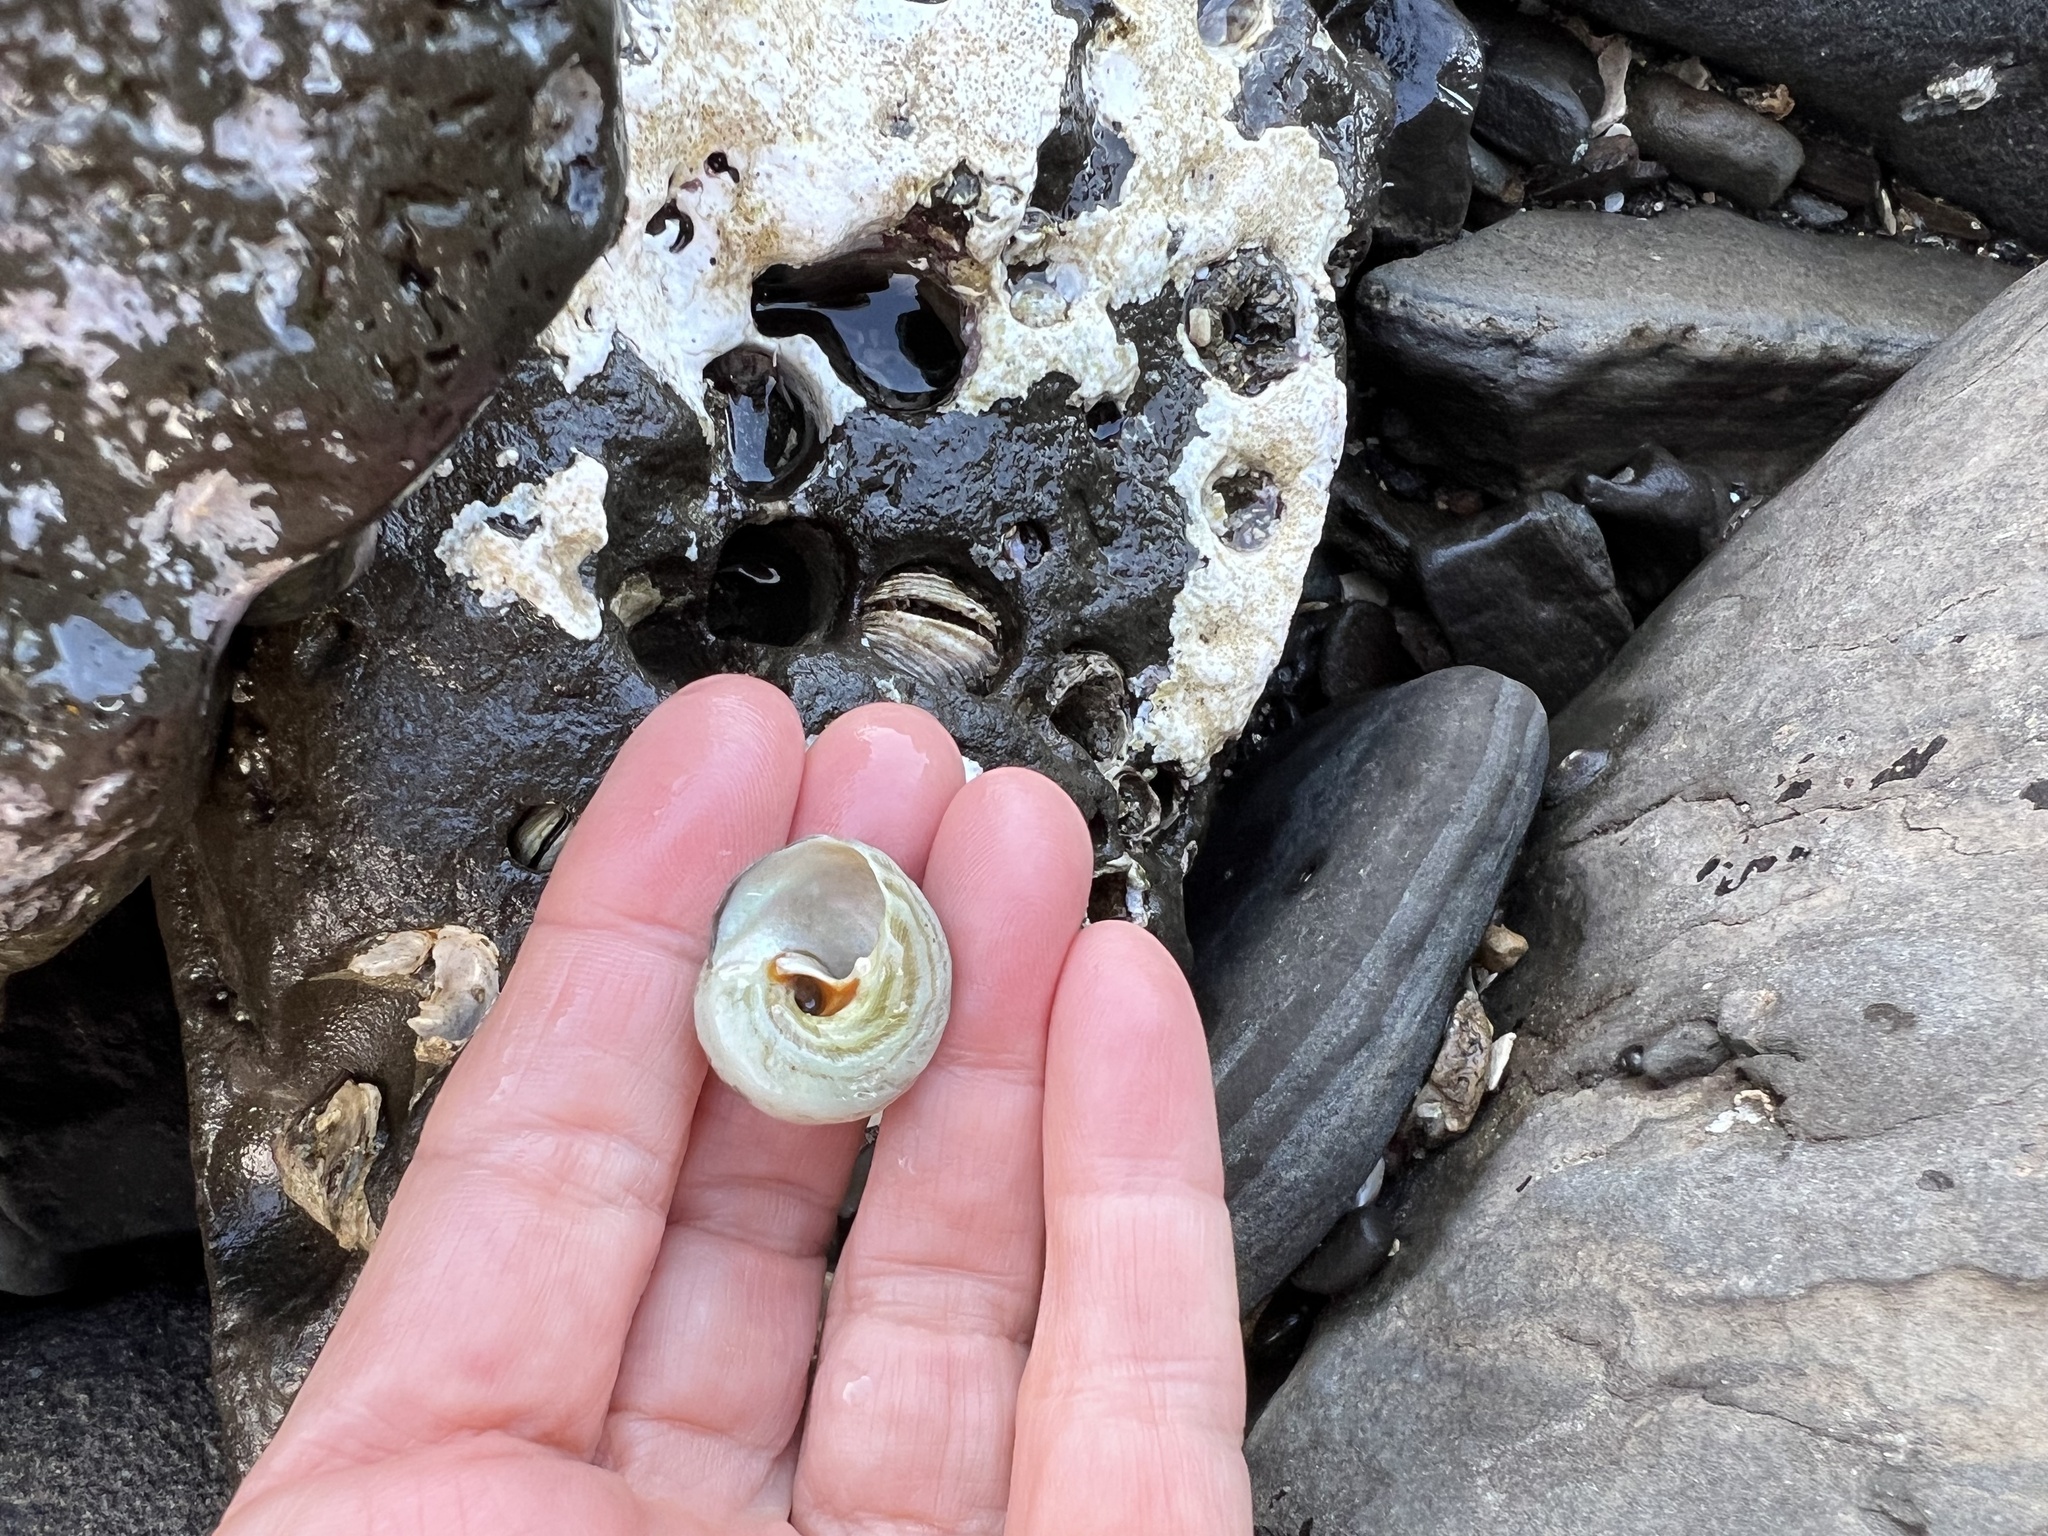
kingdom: Animalia
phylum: Mollusca
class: Gastropoda
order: Trochida
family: Tegulidae
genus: Tegula
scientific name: Tegula aureotincta
